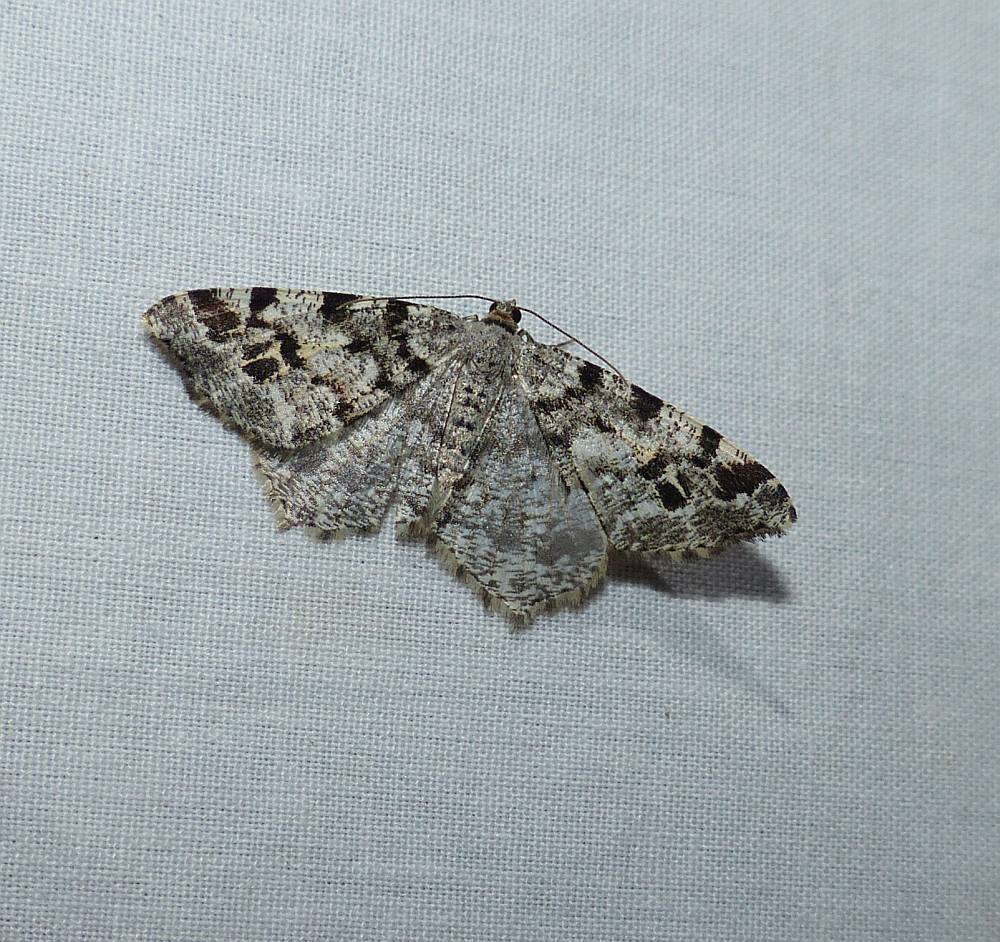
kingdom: Animalia
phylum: Arthropoda
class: Insecta
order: Lepidoptera
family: Geometridae
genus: Macaria
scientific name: Macaria pinistrobata
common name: White pine angle
